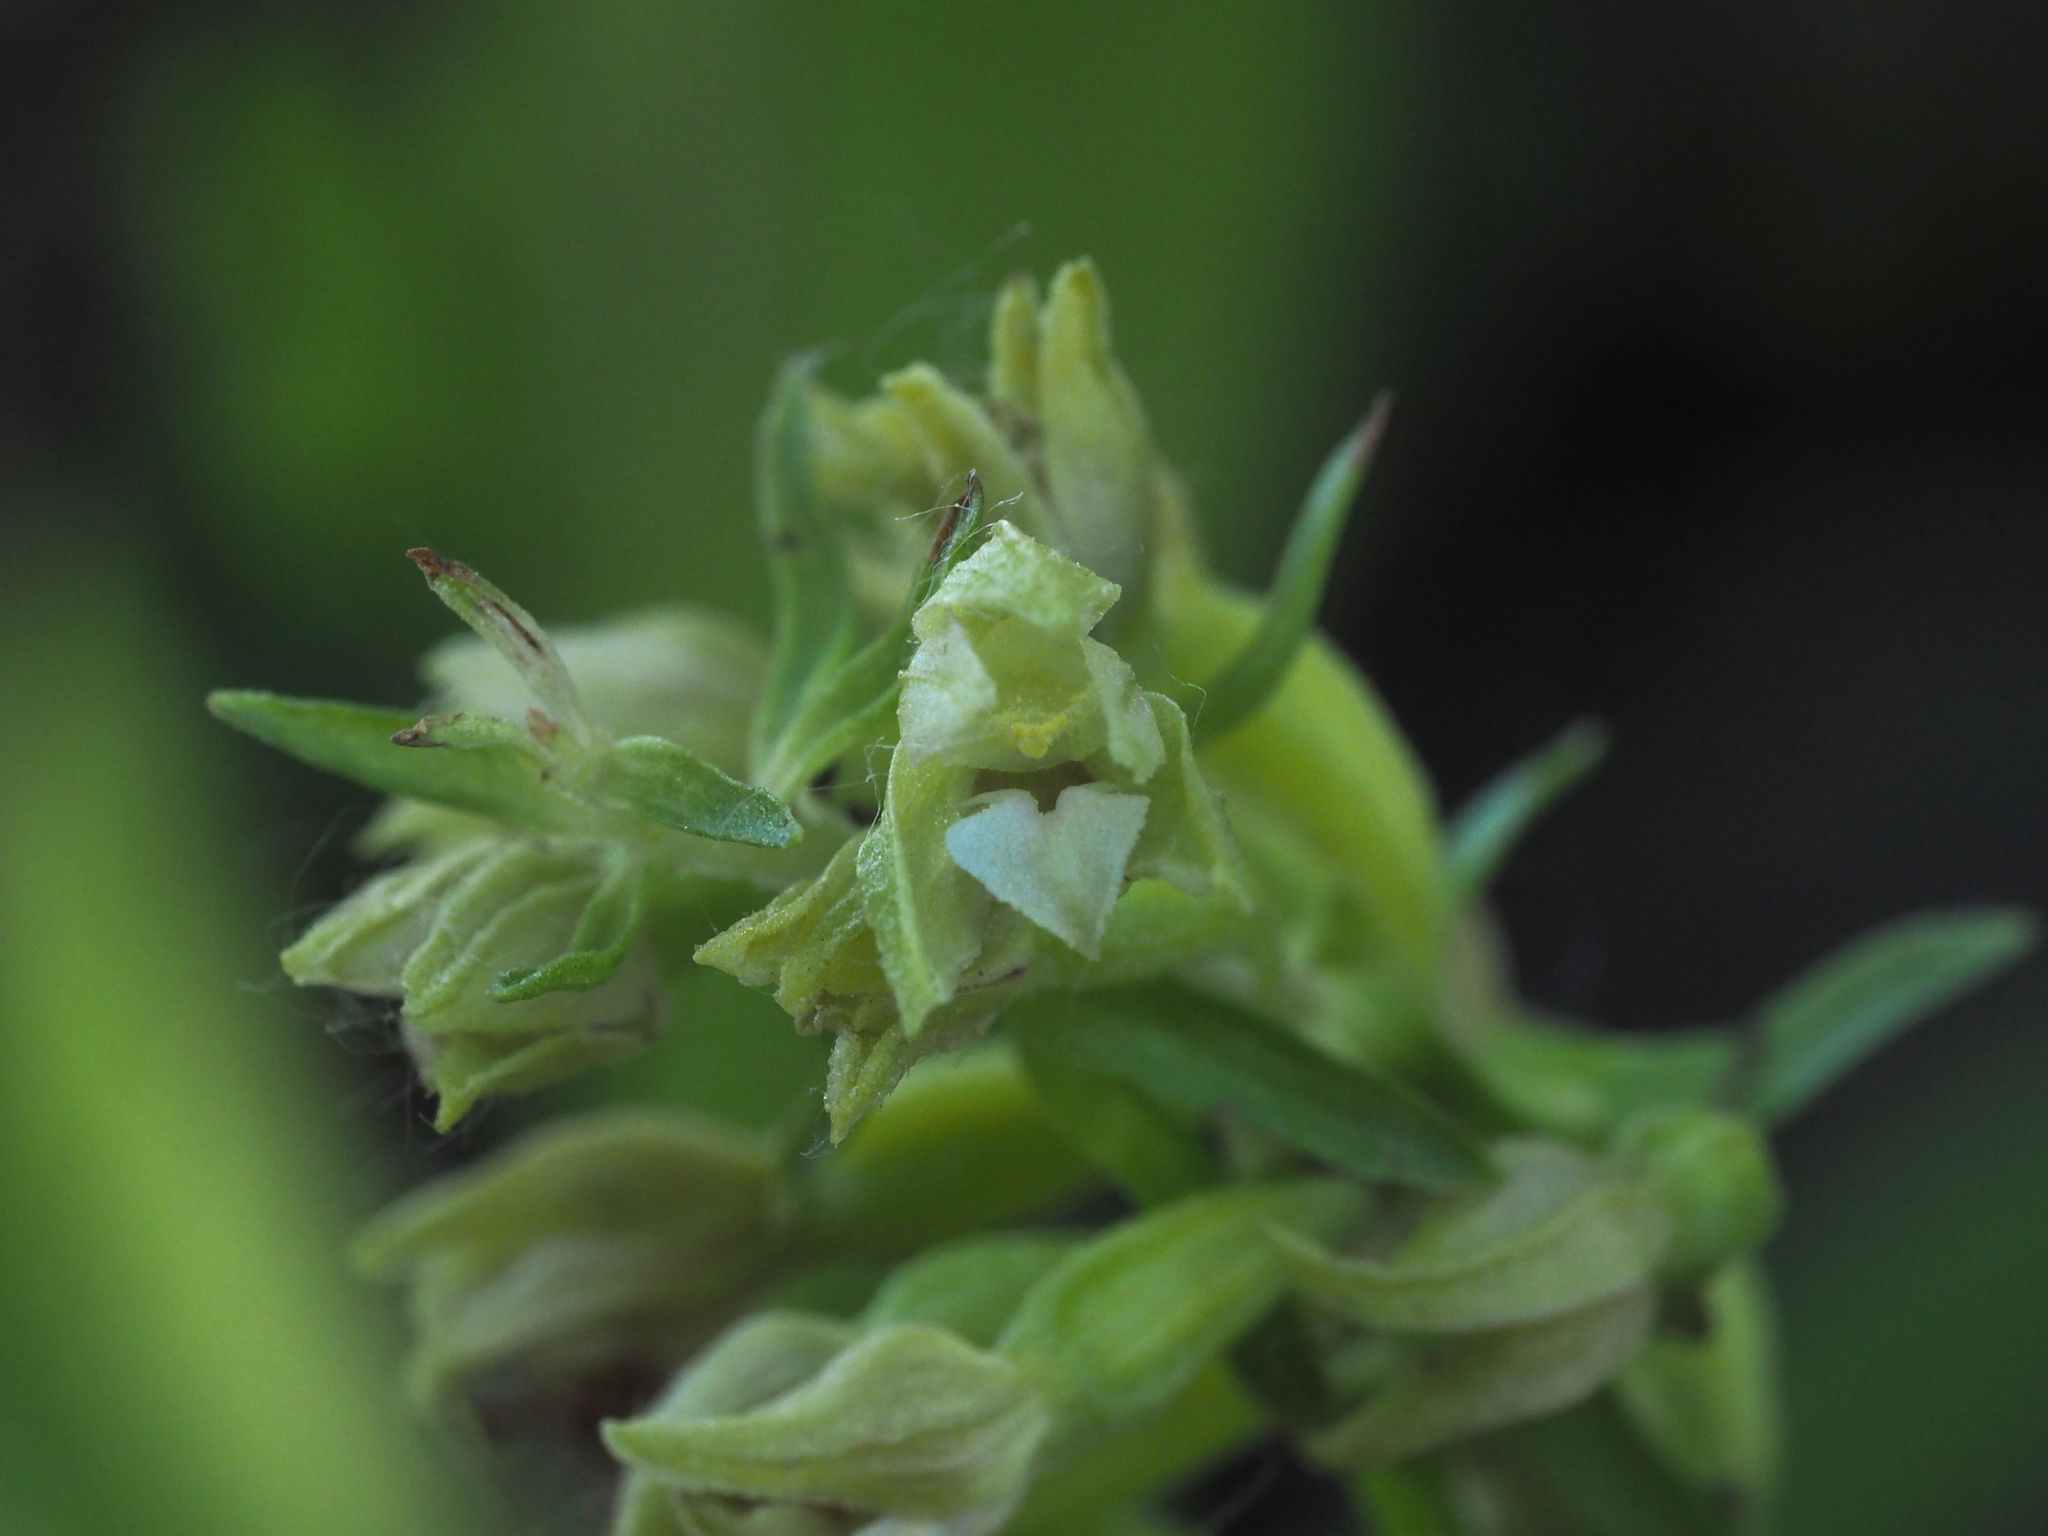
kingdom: Plantae
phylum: Tracheophyta
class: Liliopsida
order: Asparagales
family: Orchidaceae
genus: Epipactis
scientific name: Epipactis bugacensis
